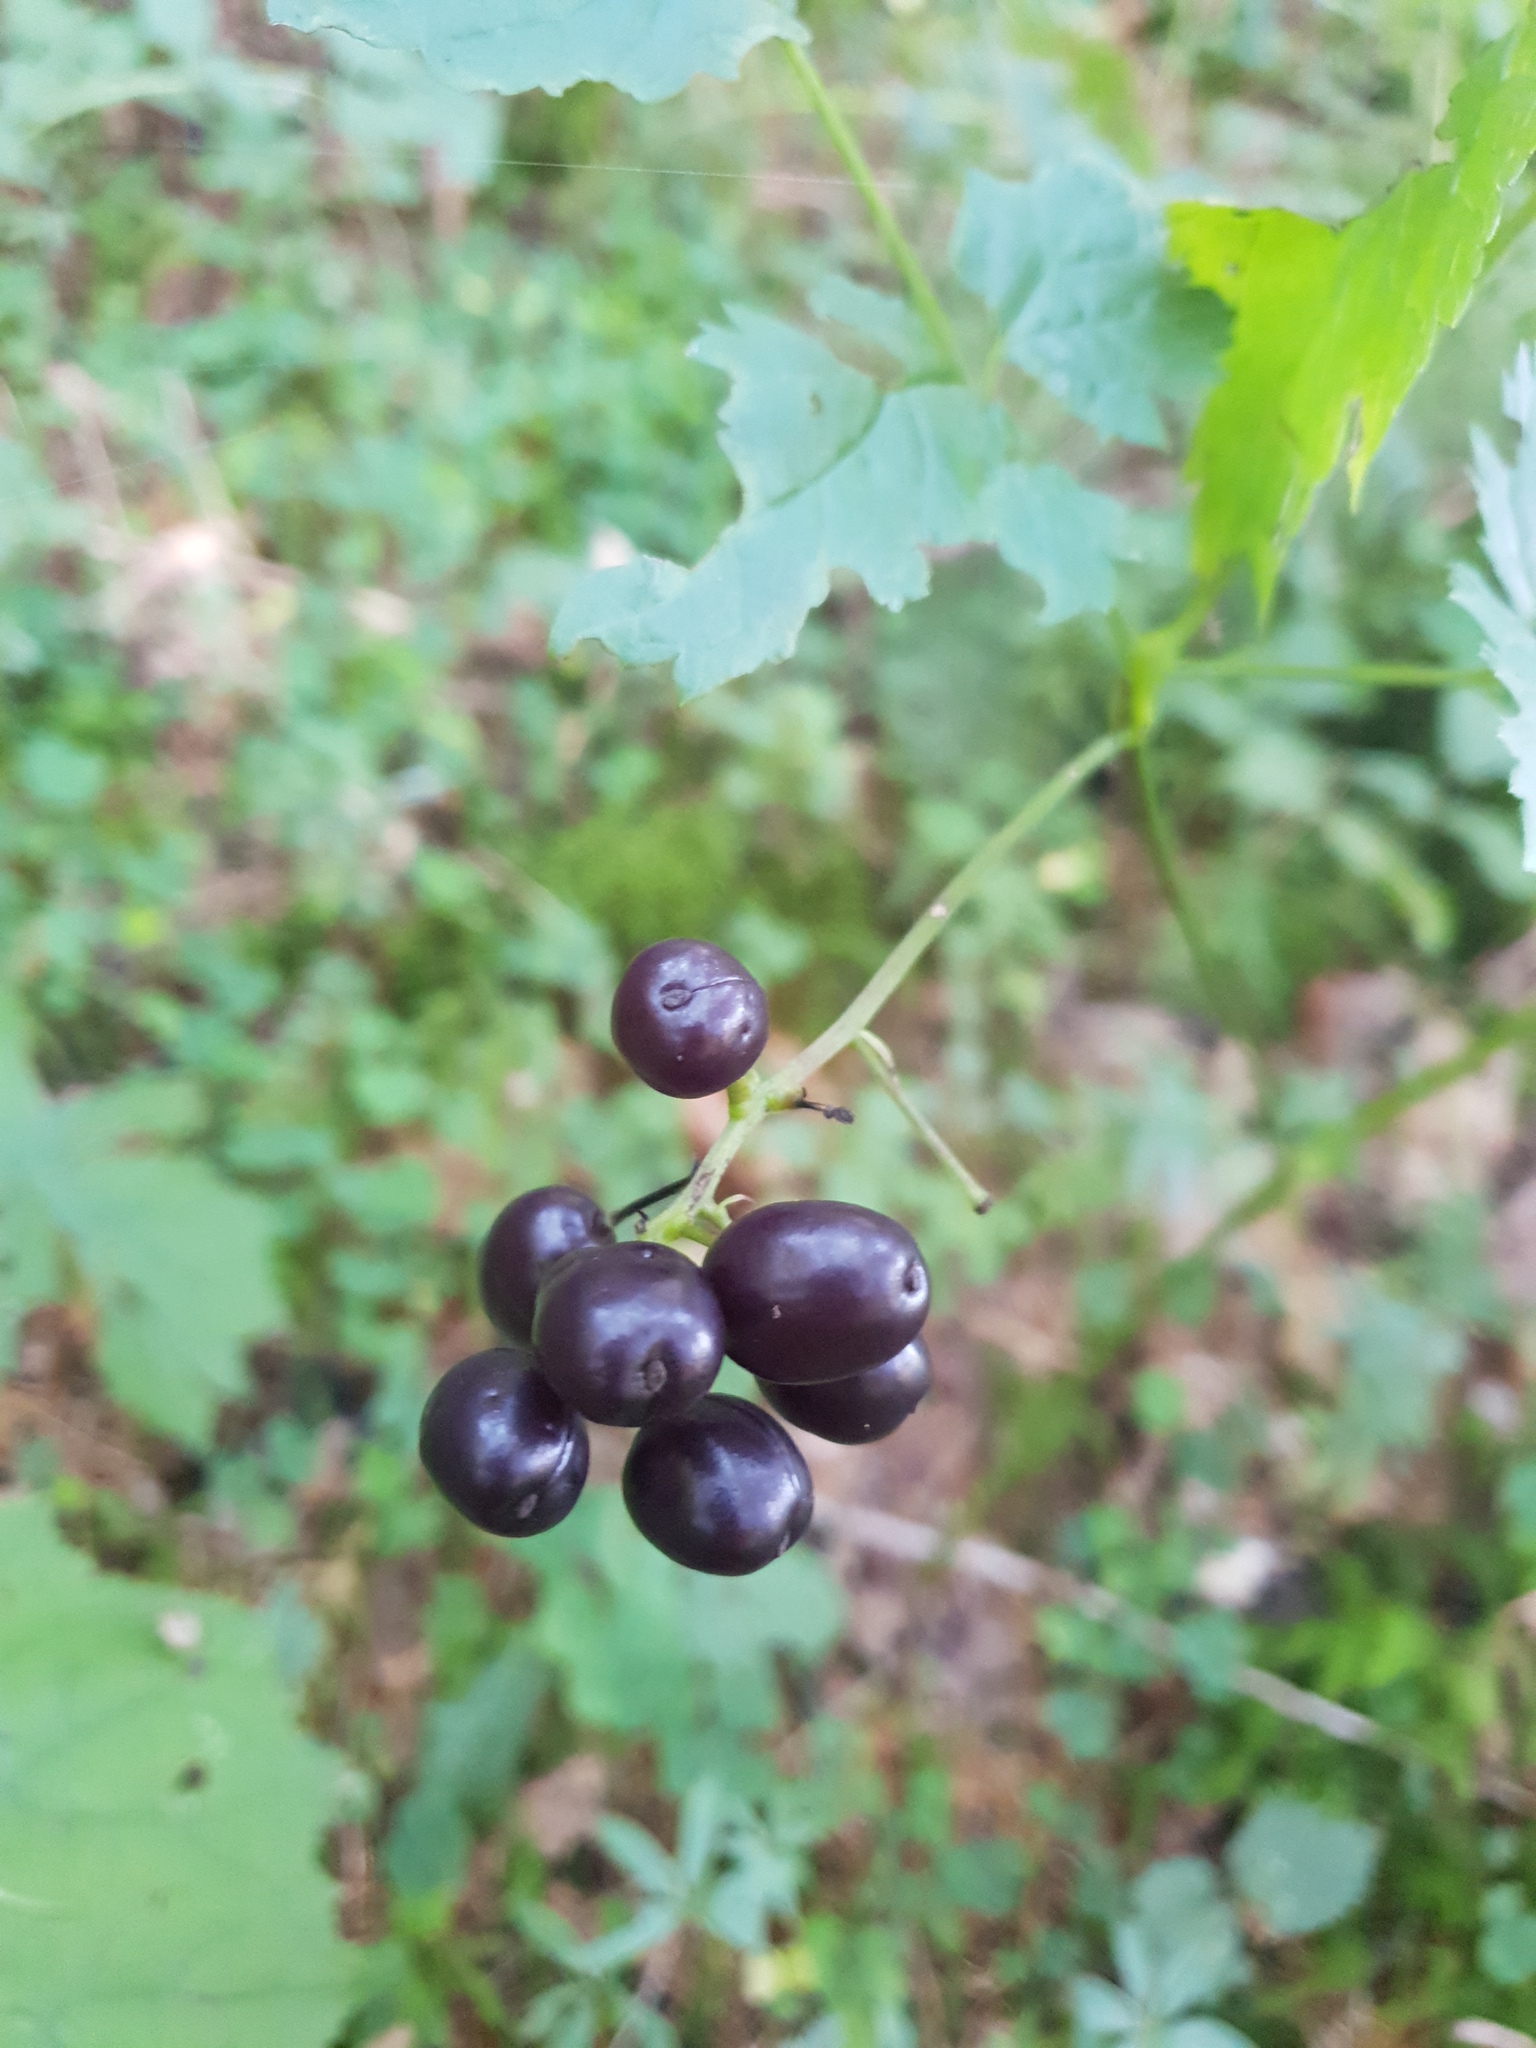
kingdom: Plantae
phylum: Tracheophyta
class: Magnoliopsida
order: Ranunculales
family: Ranunculaceae
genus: Actaea
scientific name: Actaea spicata
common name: Baneberry
